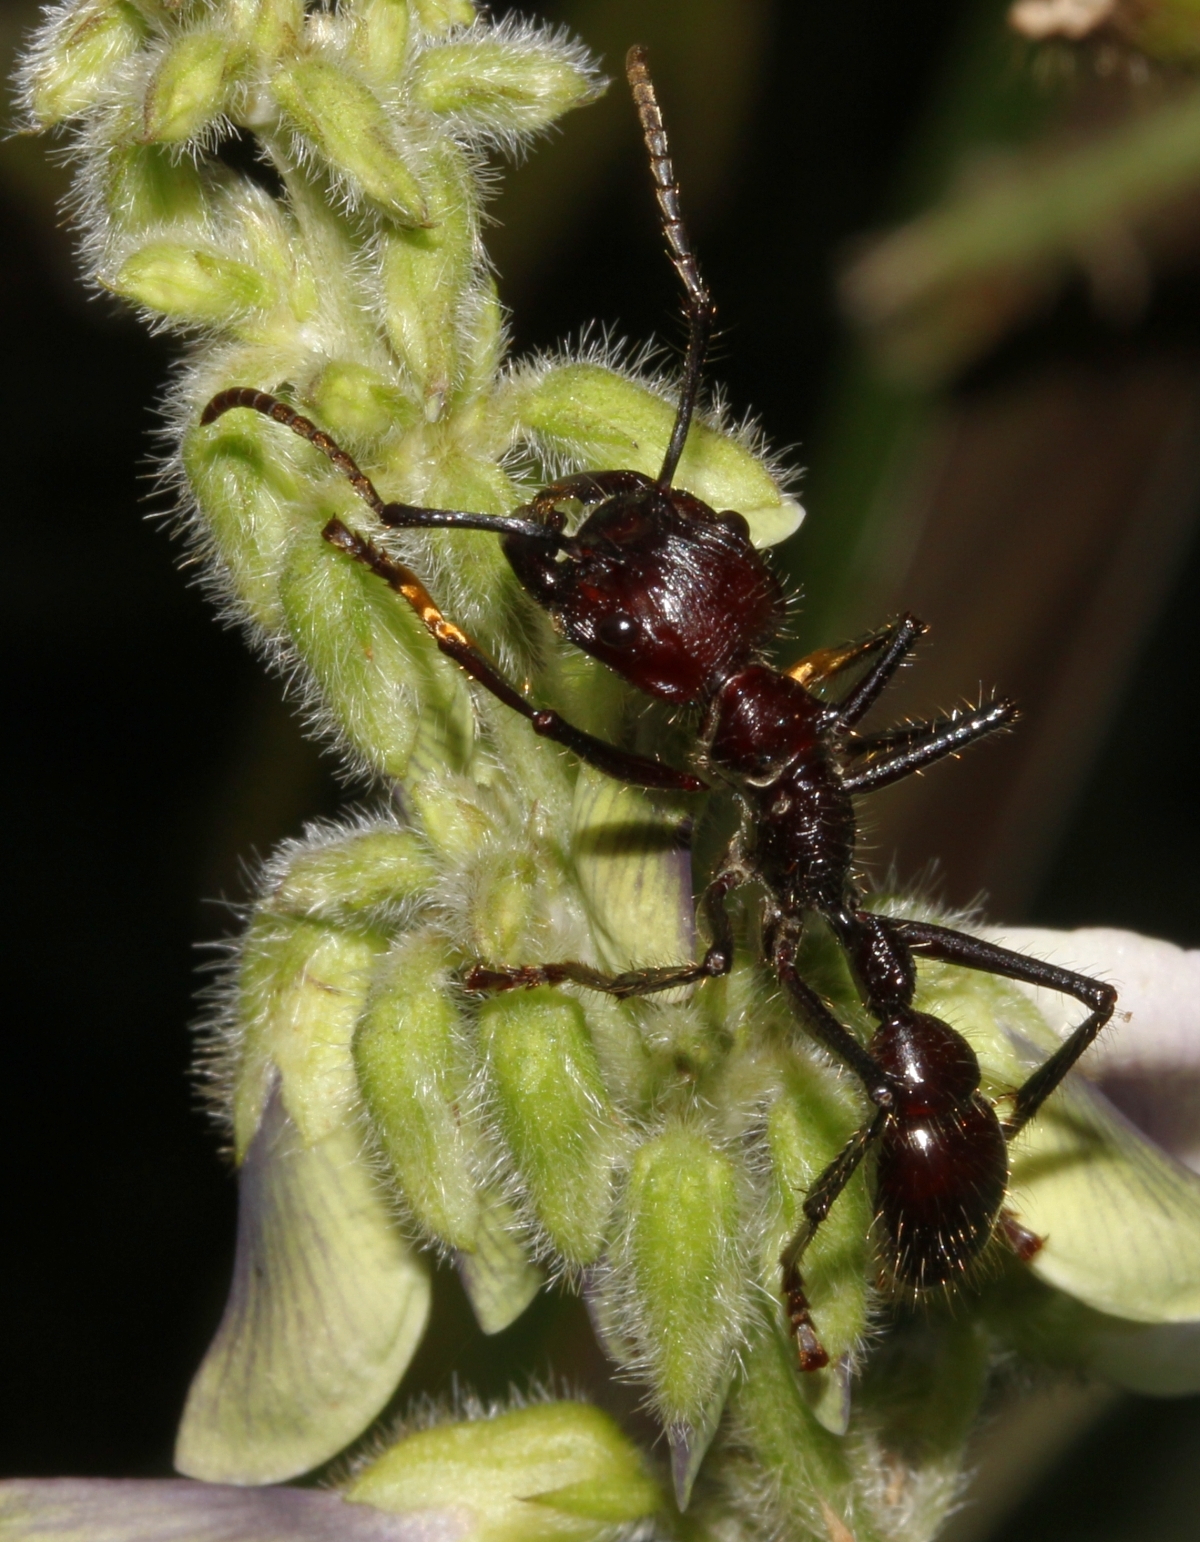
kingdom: Animalia
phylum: Arthropoda
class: Insecta
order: Hymenoptera
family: Formicidae
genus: Paraponera
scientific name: Paraponera clavata
